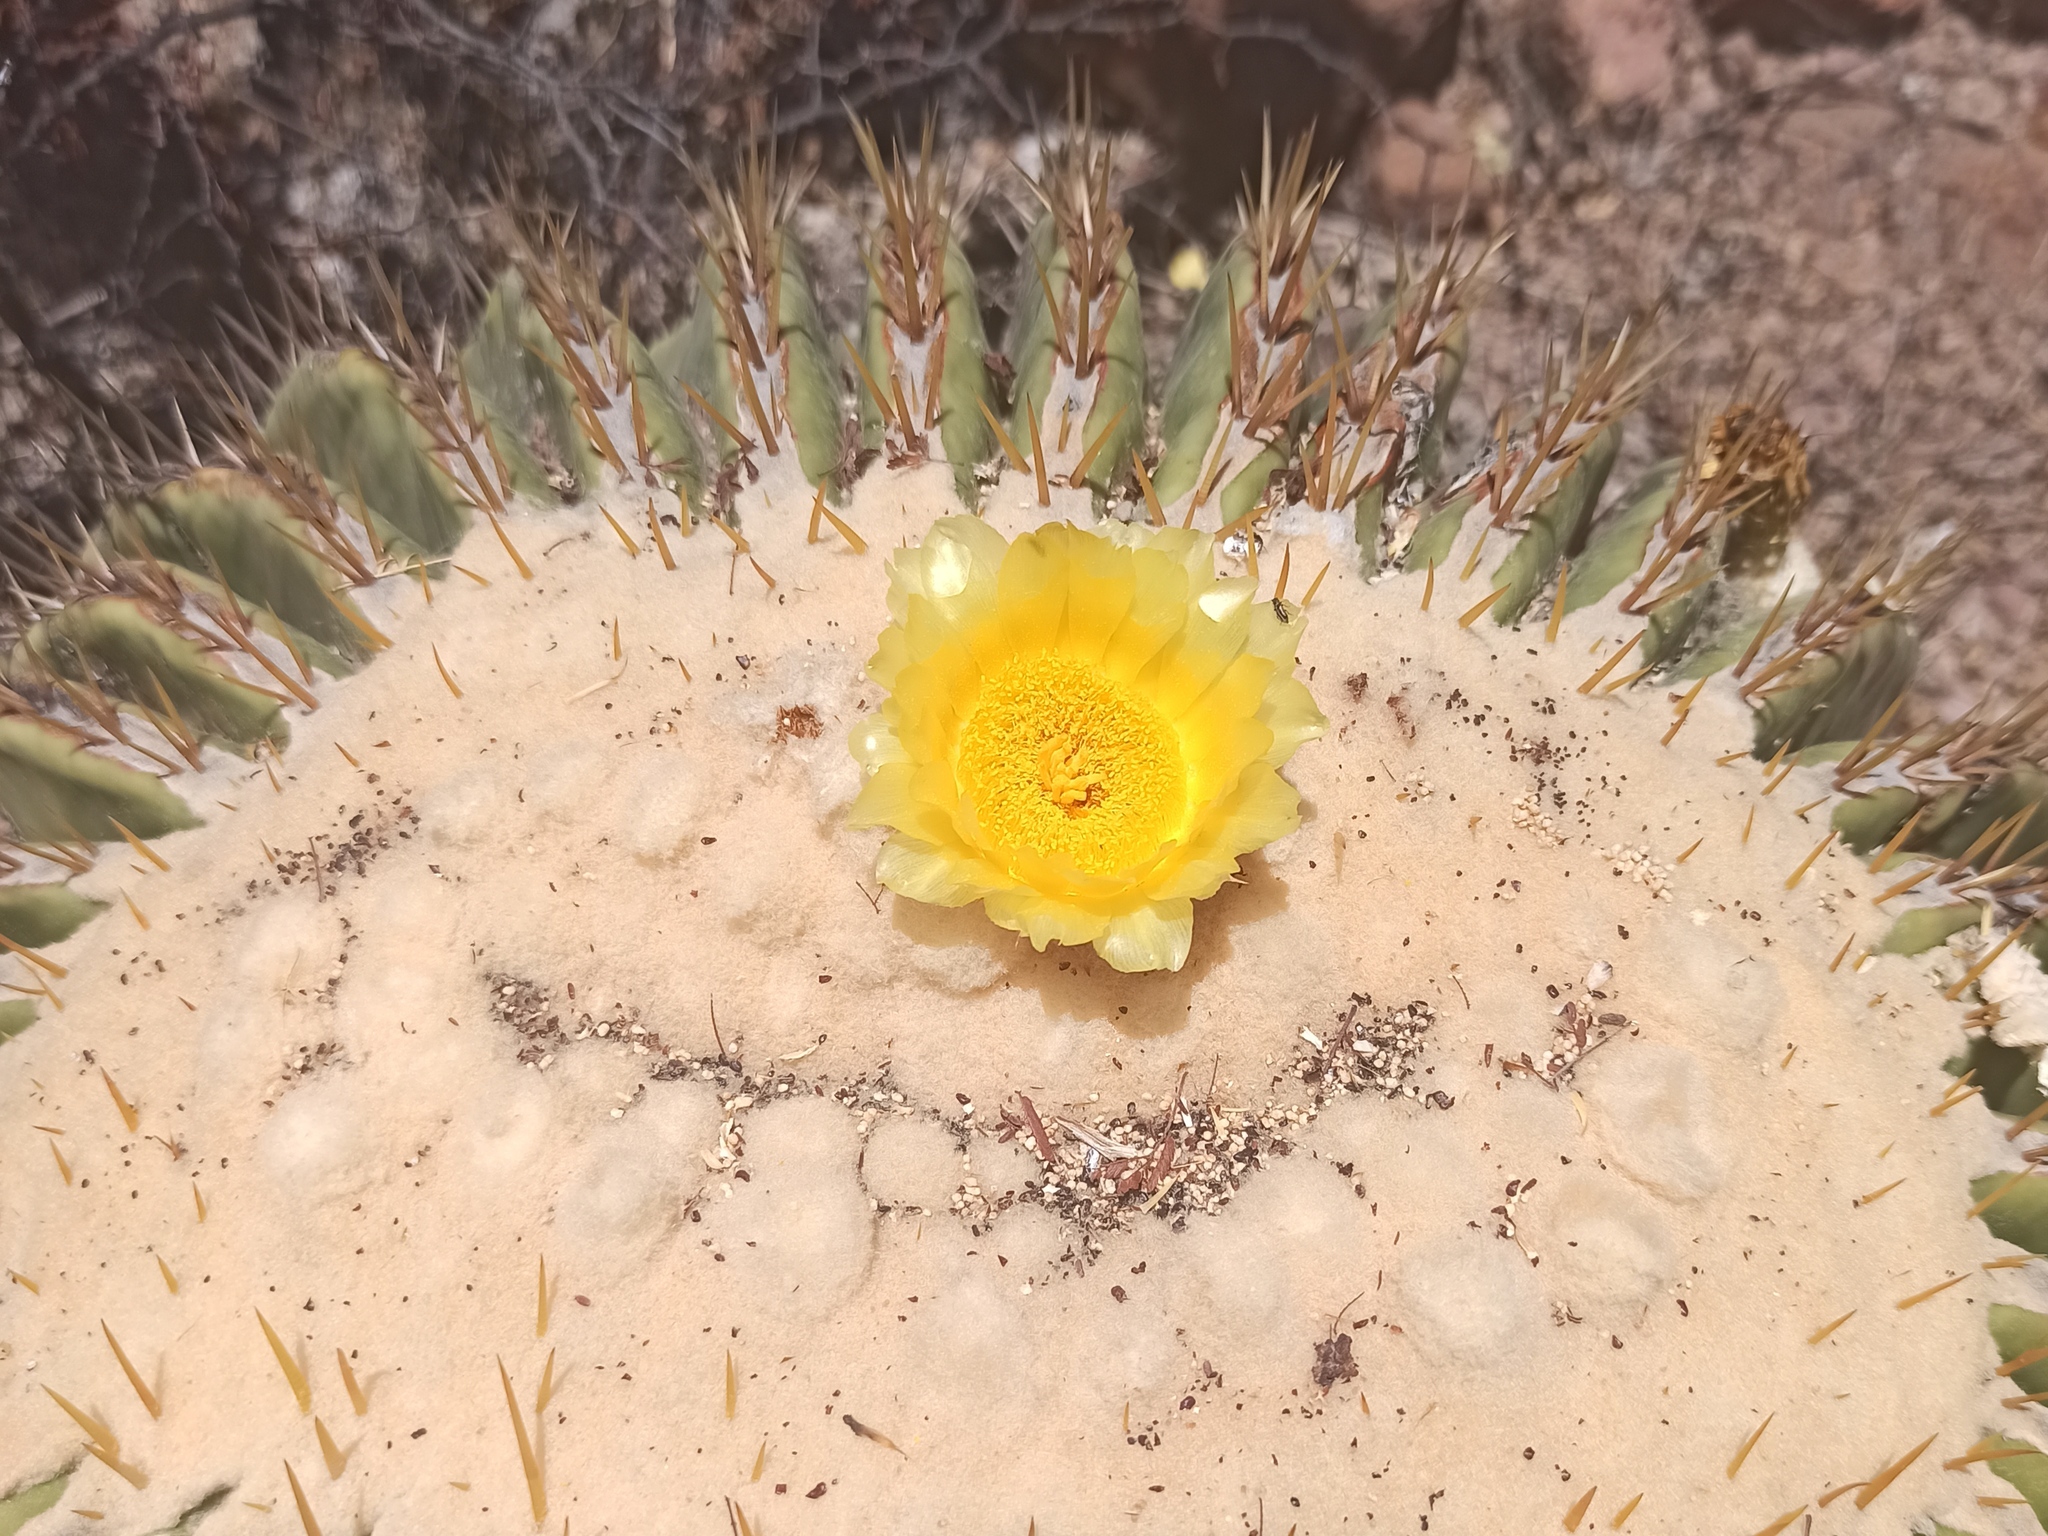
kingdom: Plantae
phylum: Tracheophyta
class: Magnoliopsida
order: Caryophyllales
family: Cactaceae
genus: Echinocactus
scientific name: Echinocactus platyacanthus
